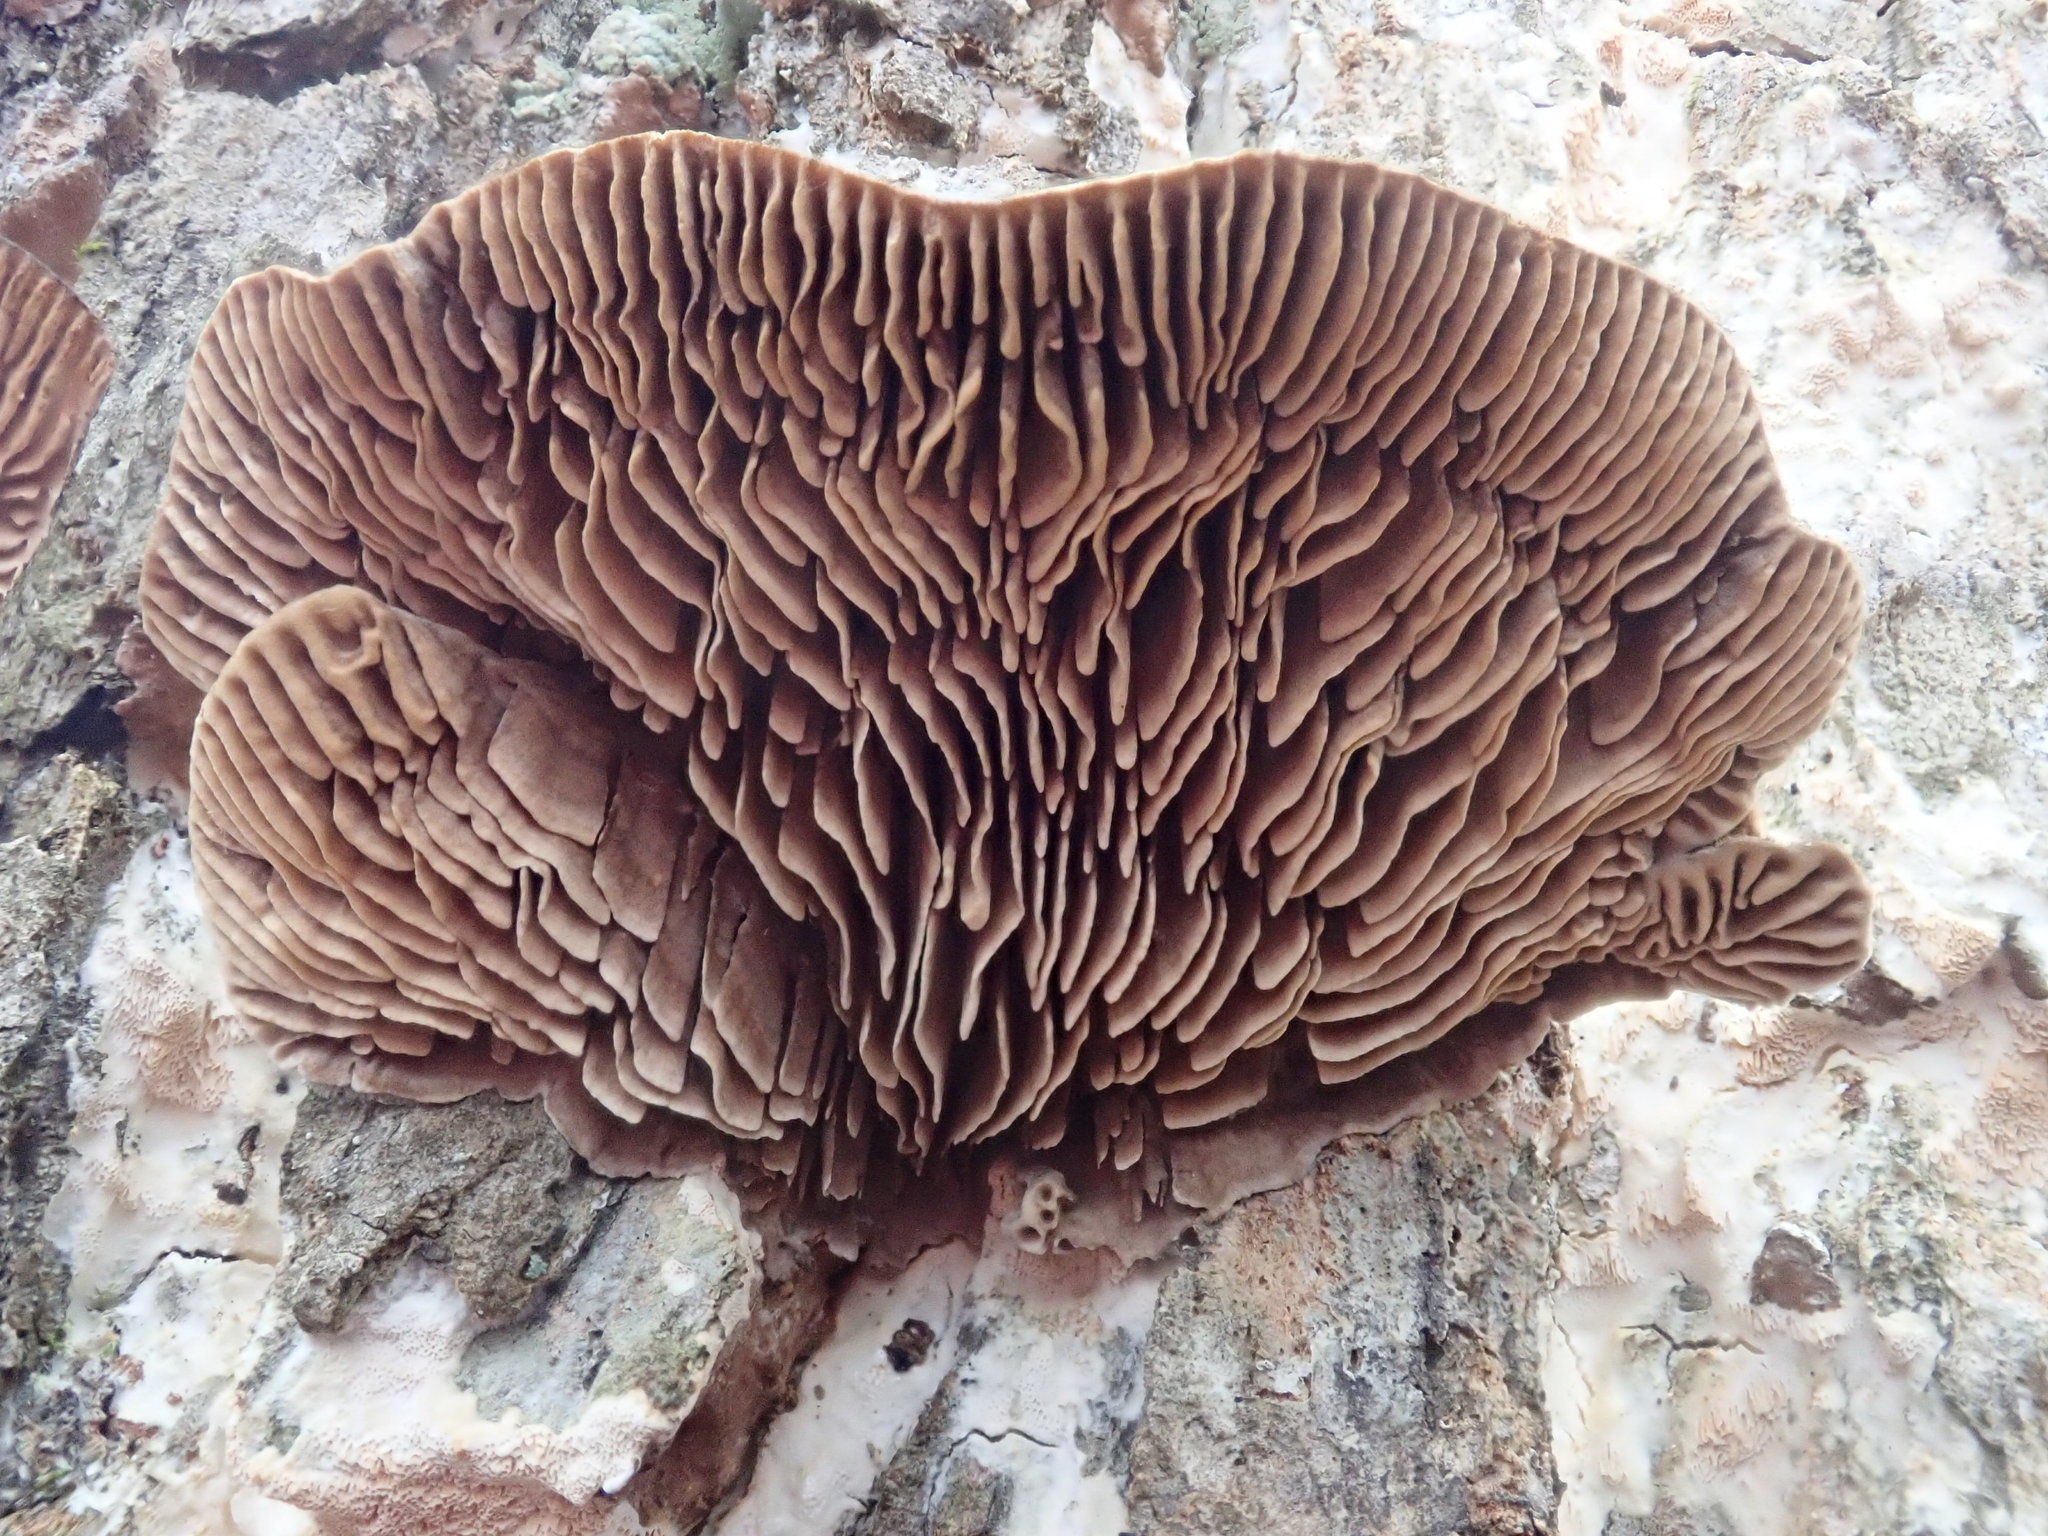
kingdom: Fungi
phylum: Basidiomycota
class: Agaricomycetes
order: Polyporales
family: Polyporaceae
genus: Lenzites
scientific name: Lenzites betulinus
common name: Birch mazegill
